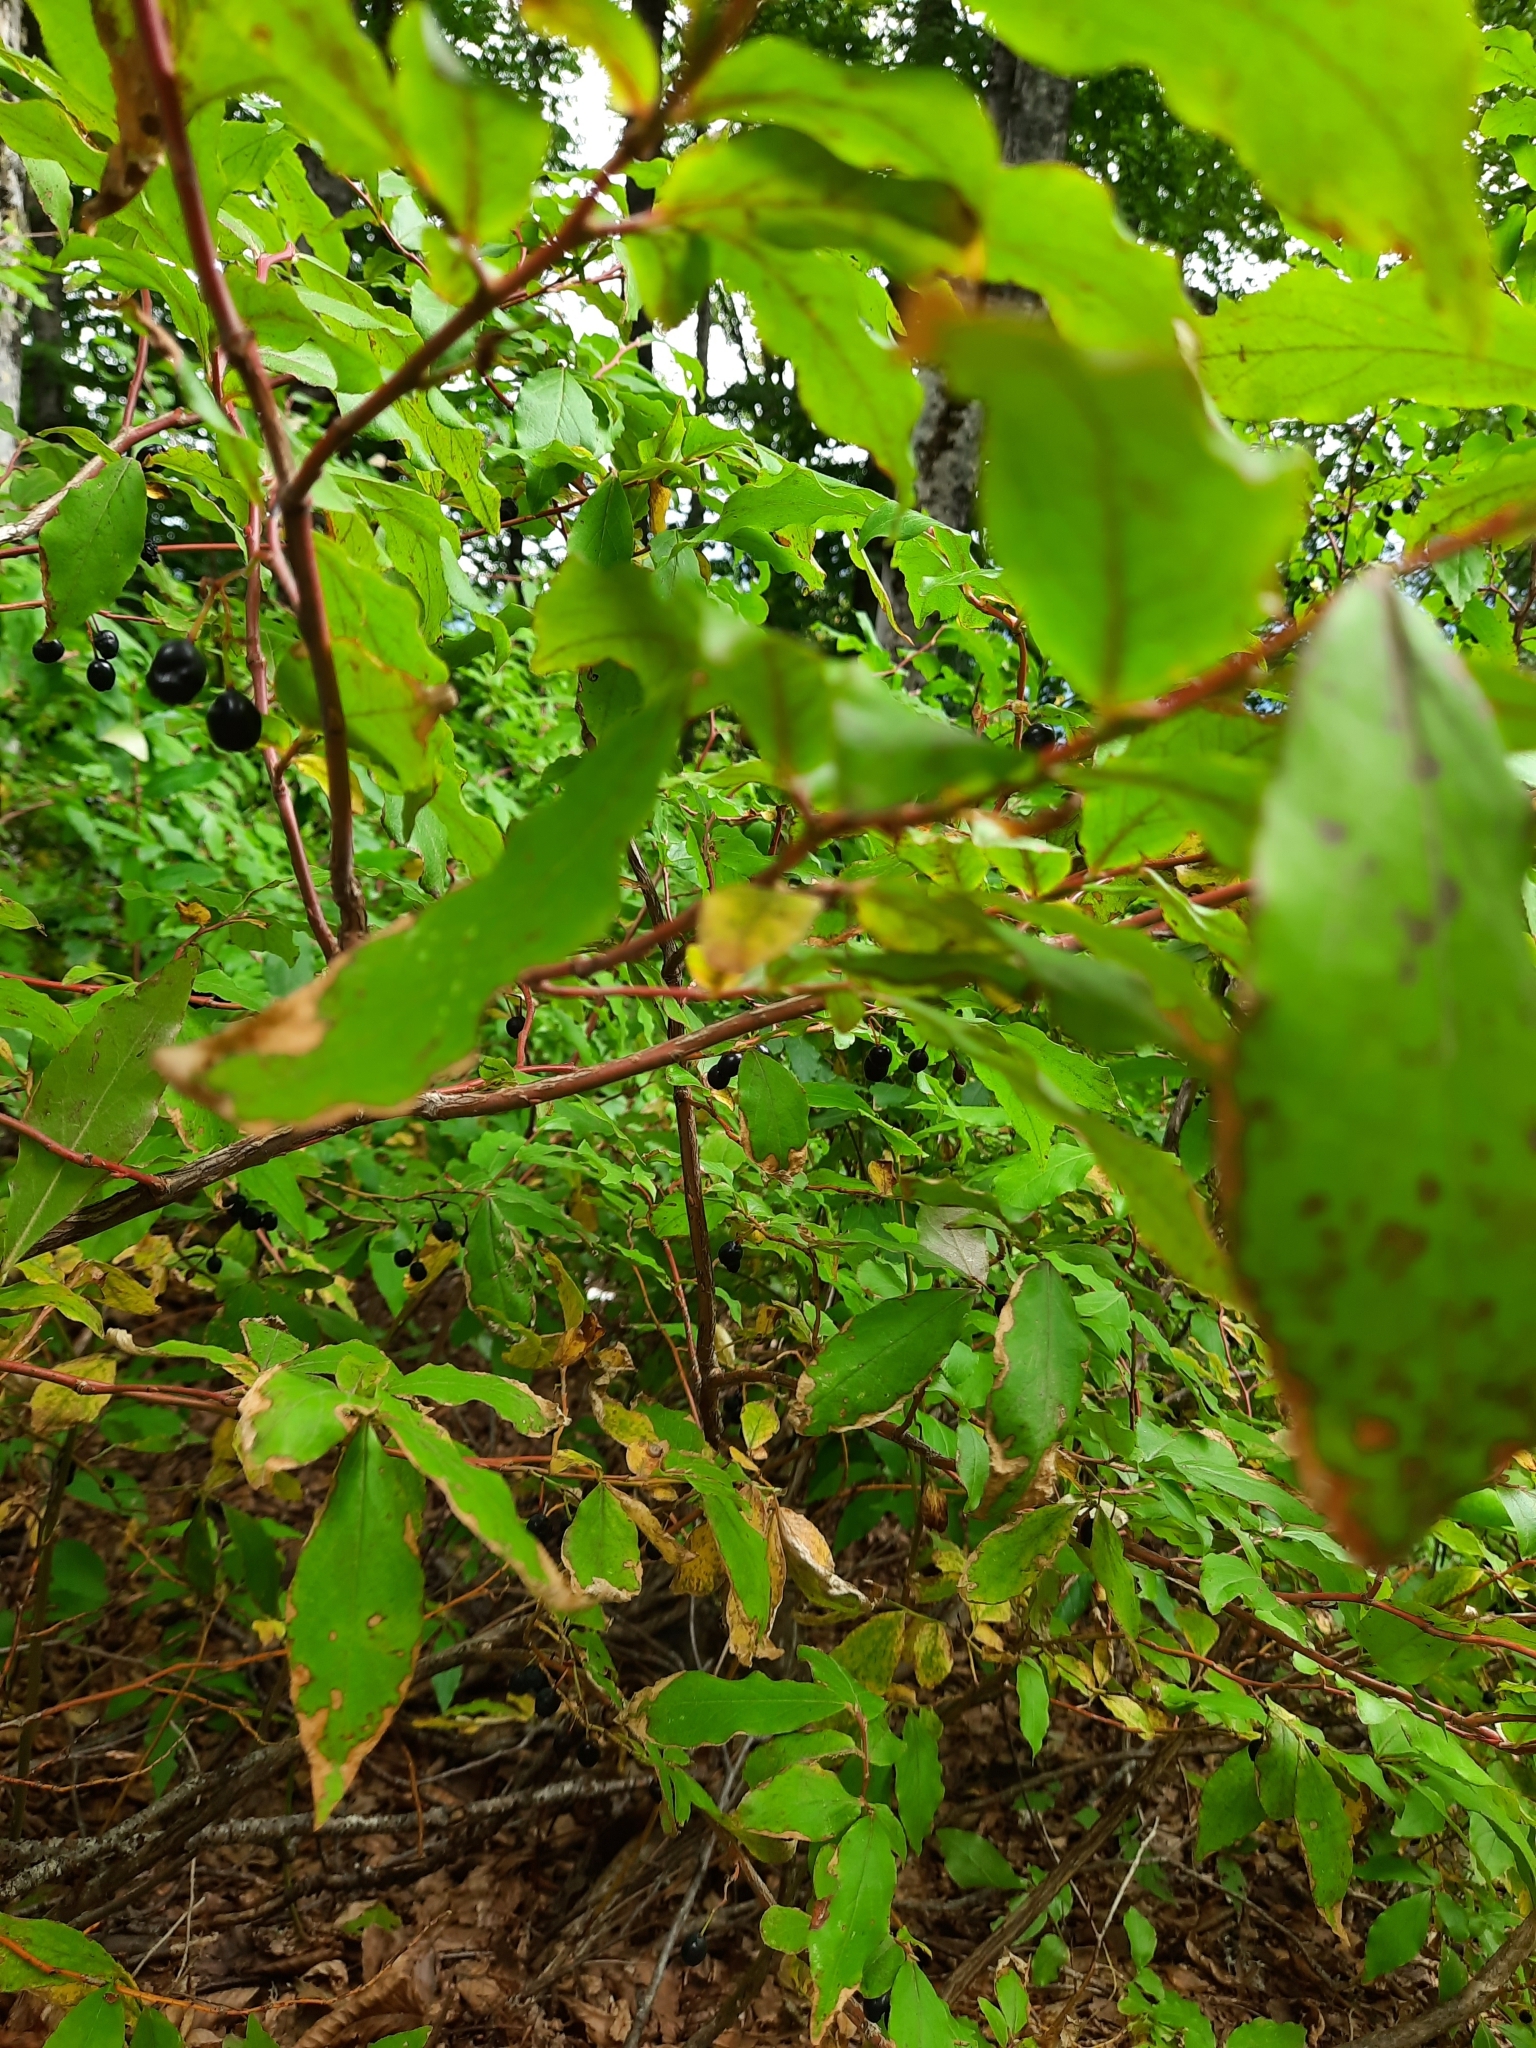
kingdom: Plantae
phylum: Tracheophyta
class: Magnoliopsida
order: Ericales
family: Ericaceae
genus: Vaccinium
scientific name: Vaccinium arctostaphylos
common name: Caucasian whortleberry
